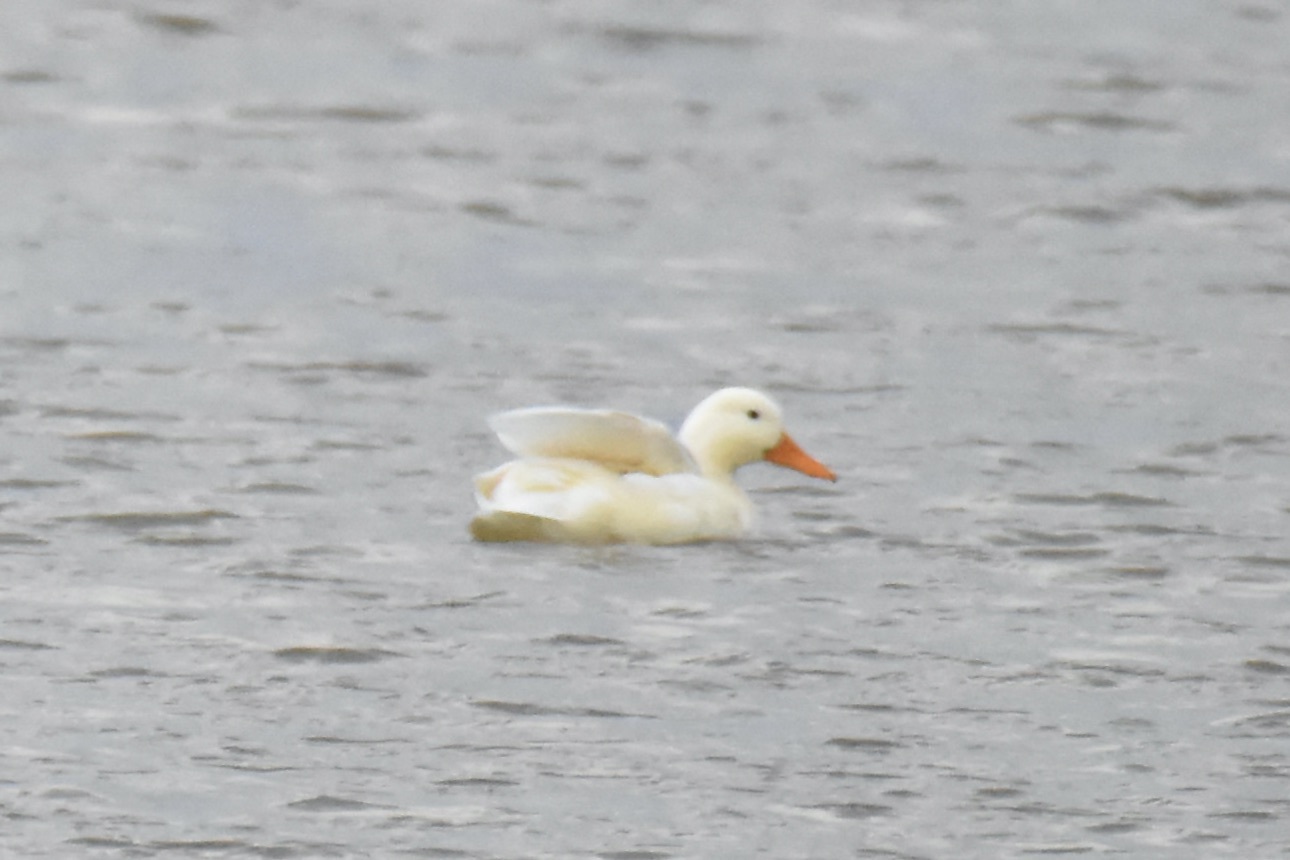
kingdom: Animalia
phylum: Chordata
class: Aves
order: Anseriformes
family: Anatidae
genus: Anas
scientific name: Anas platyrhynchos
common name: Mallard
